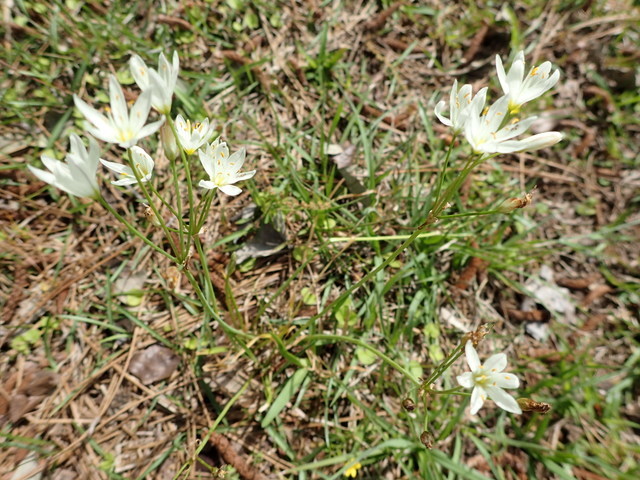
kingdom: Plantae
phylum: Tracheophyta
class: Liliopsida
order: Asparagales
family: Amaryllidaceae
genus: Nothoscordum
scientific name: Nothoscordum bivalve
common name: Crow-poison
